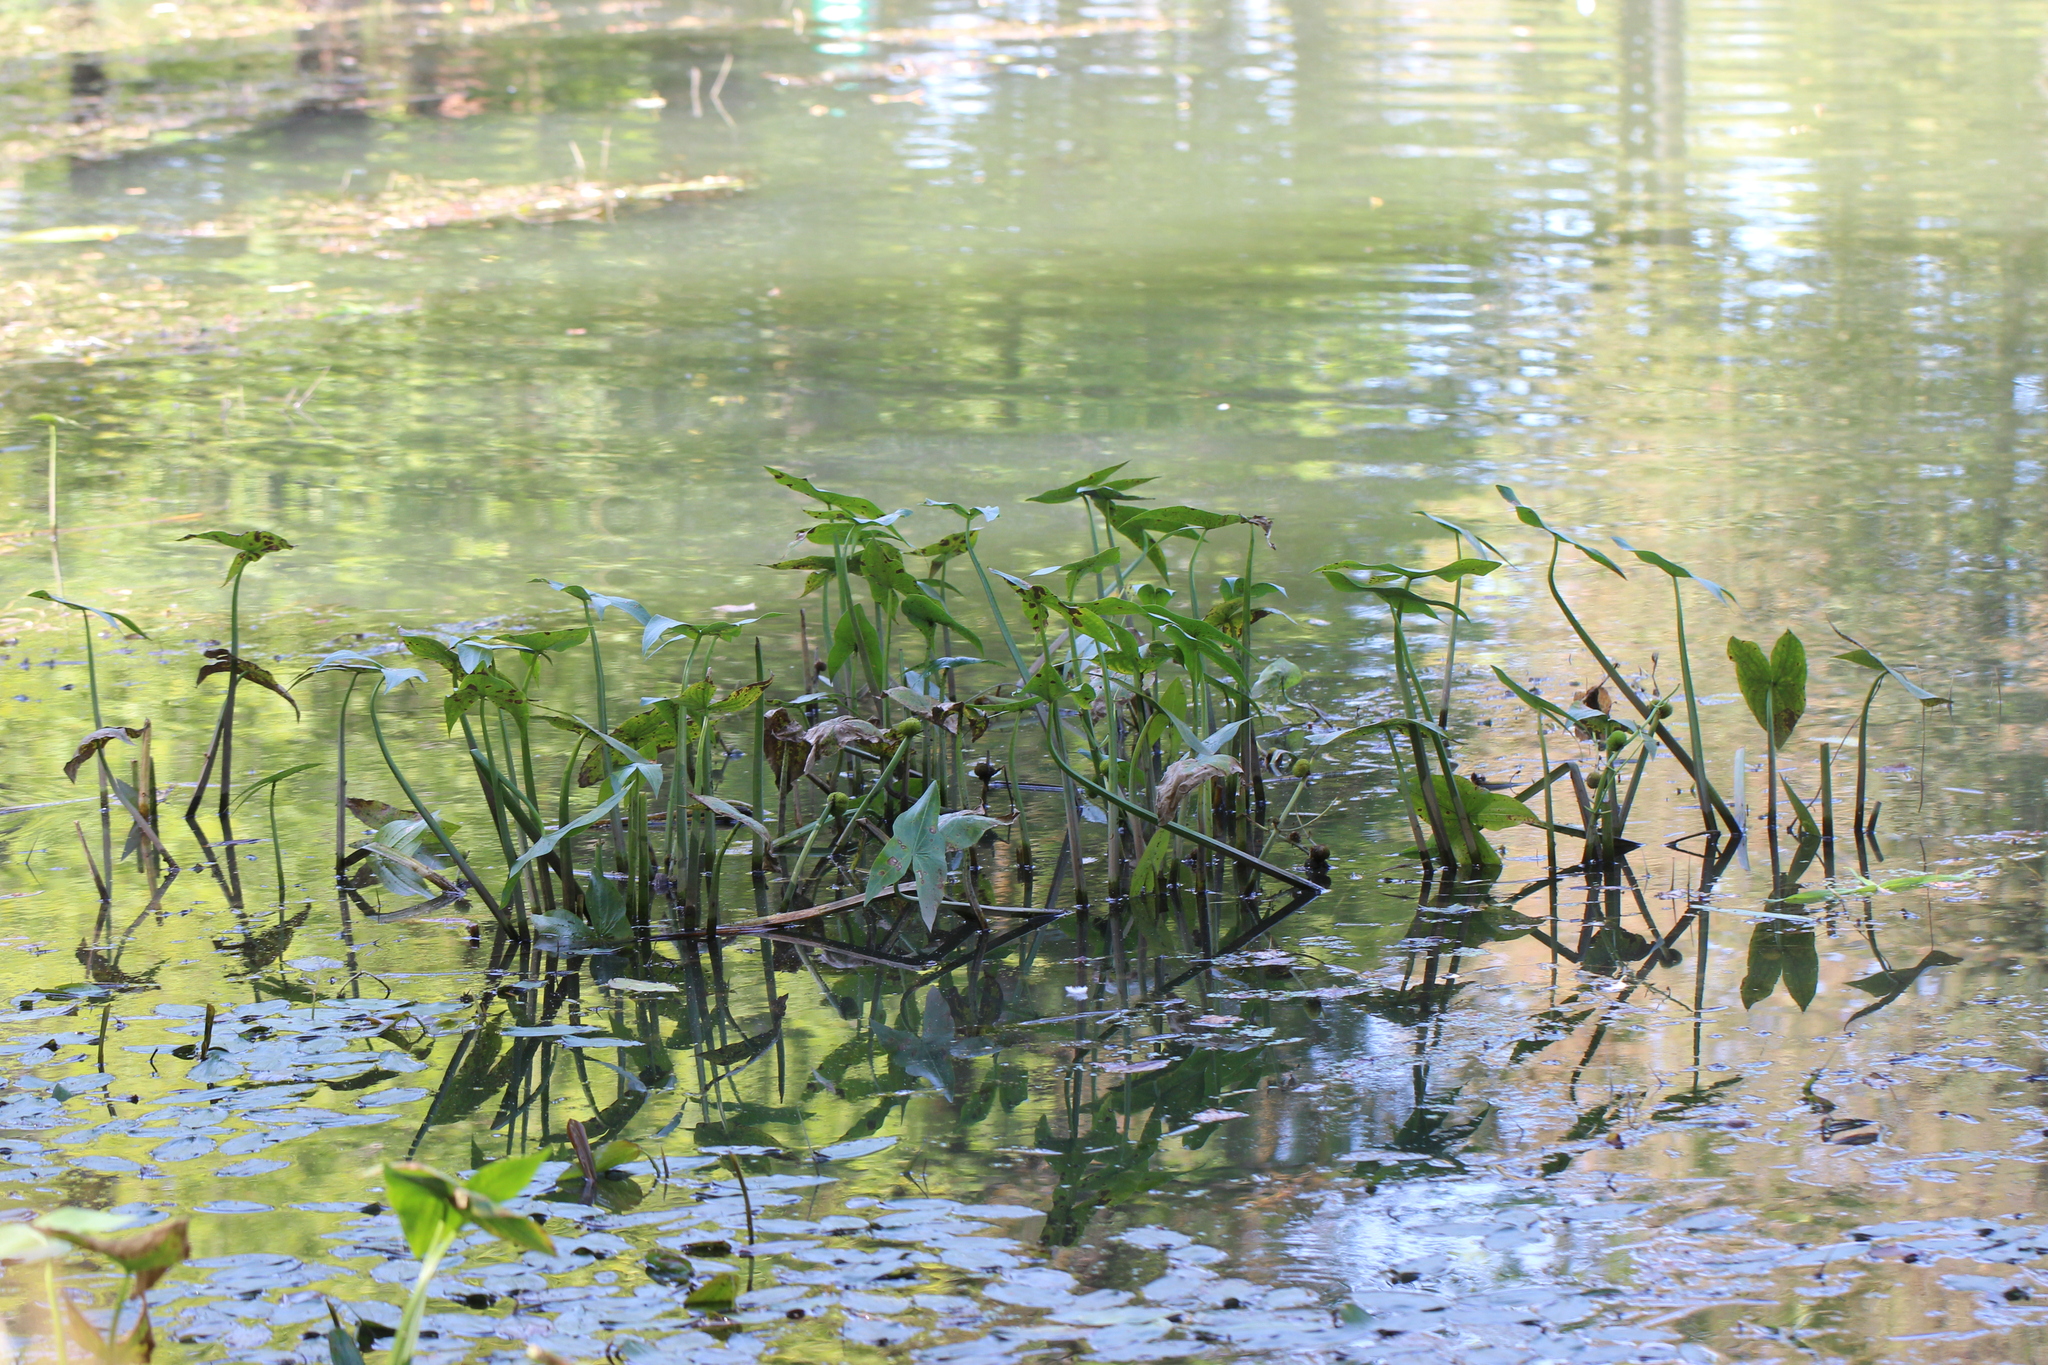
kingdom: Plantae
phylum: Tracheophyta
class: Liliopsida
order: Alismatales
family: Alismataceae
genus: Sagittaria
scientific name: Sagittaria sagittifolia
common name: Arrowhead
